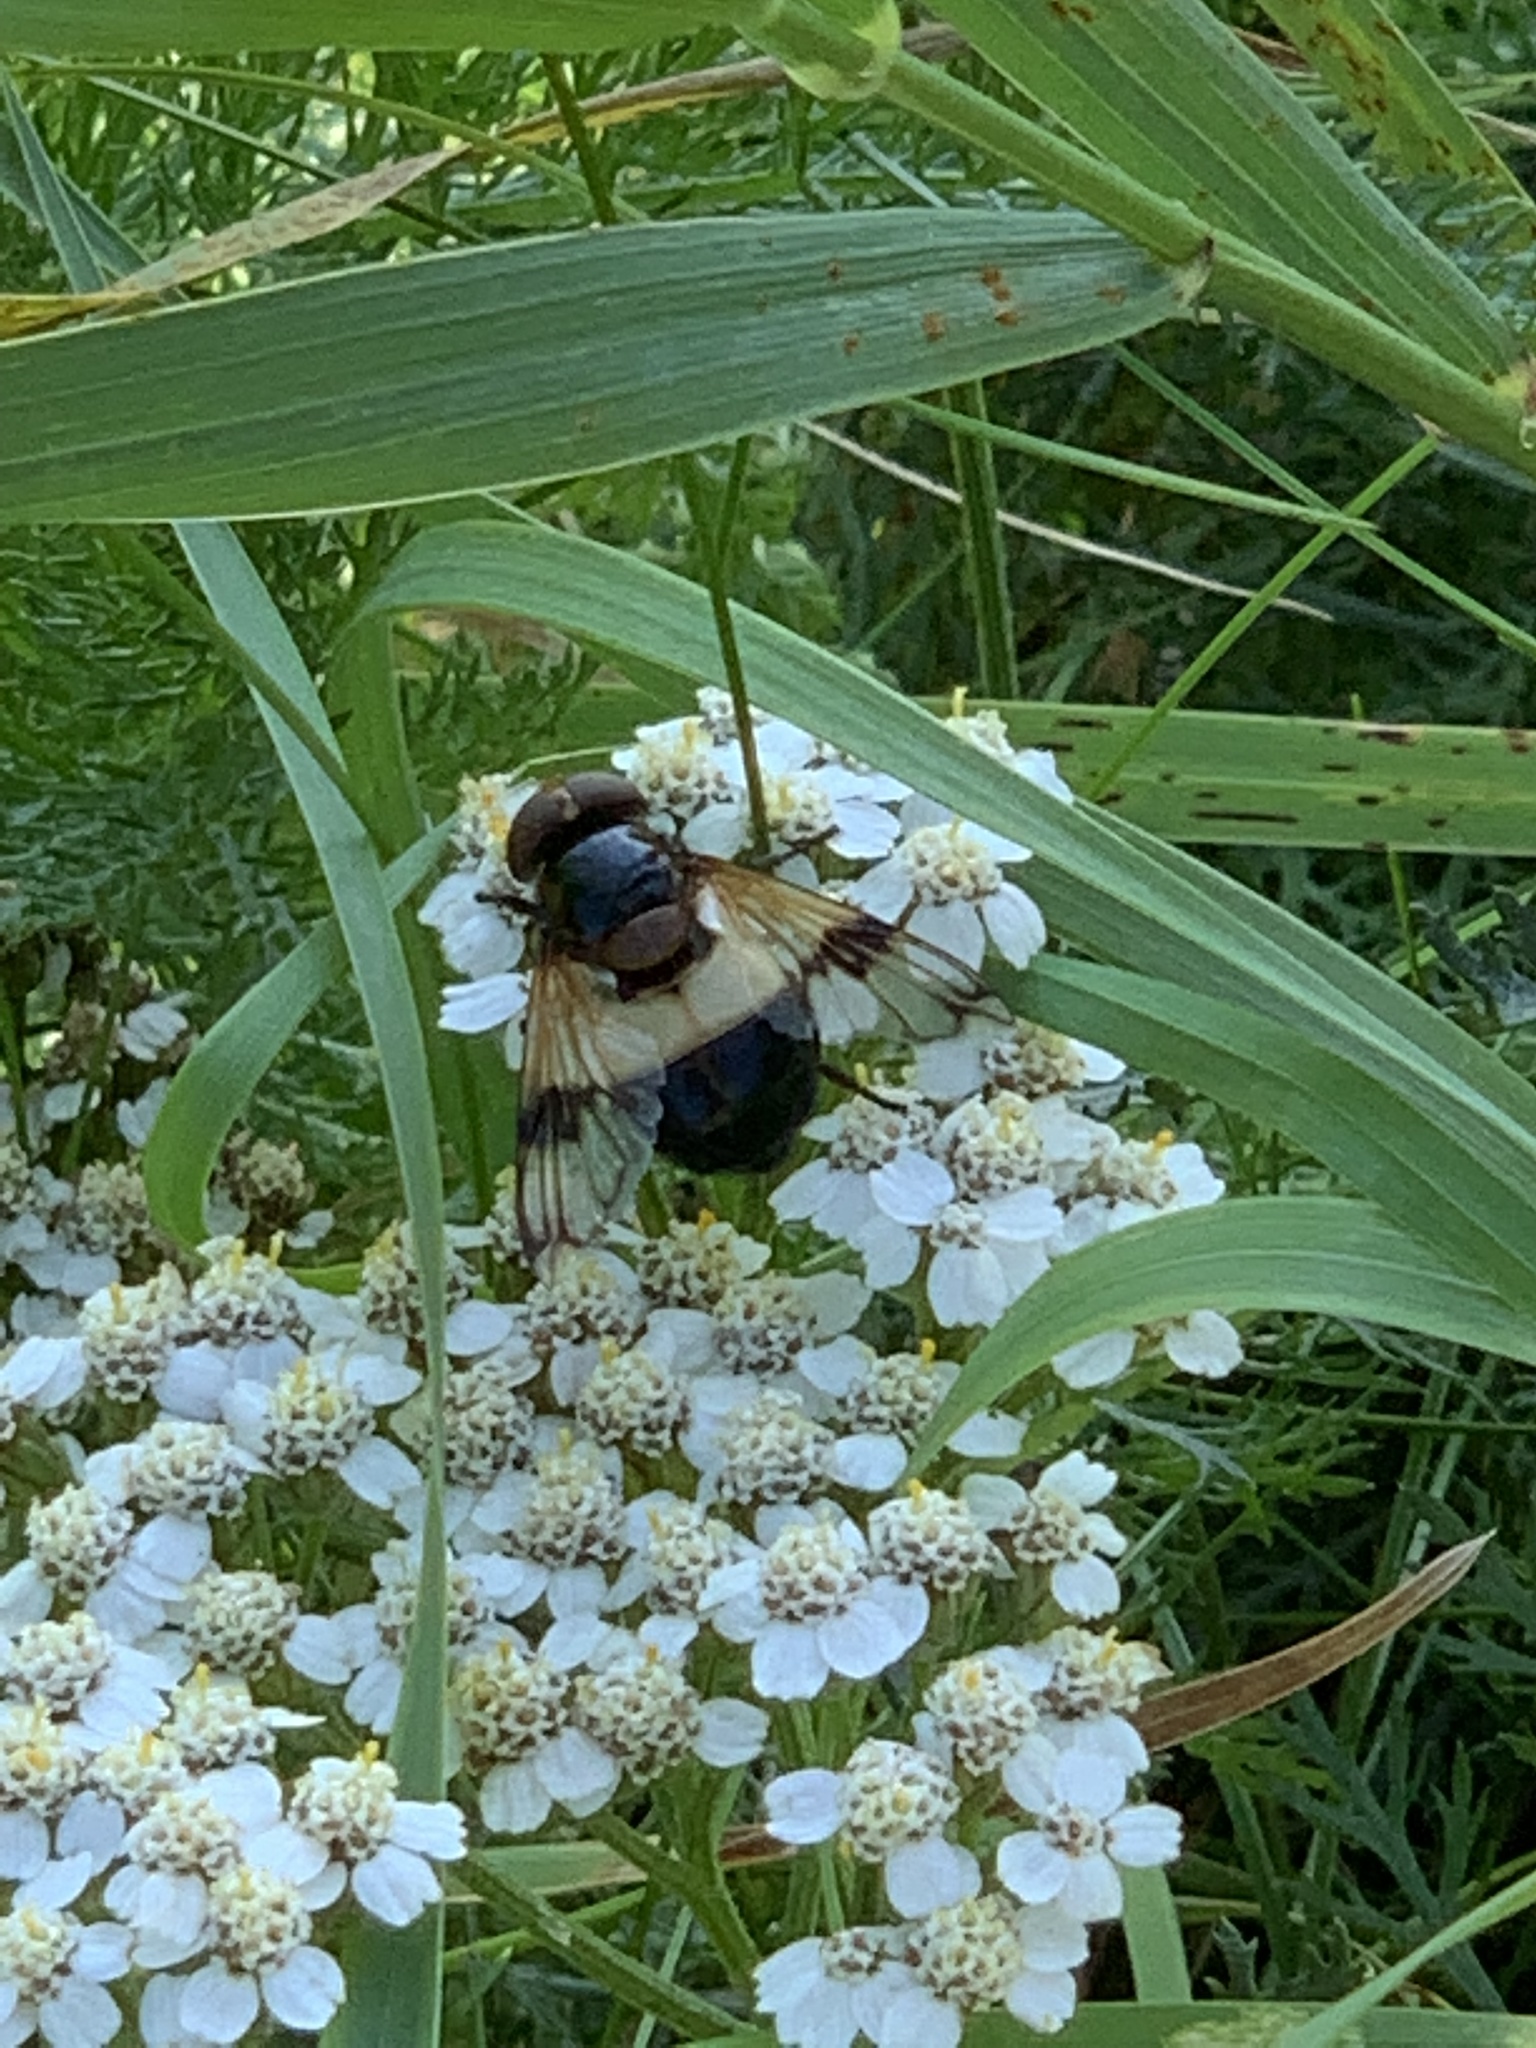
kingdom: Animalia
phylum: Arthropoda
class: Insecta
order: Diptera
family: Syrphidae
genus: Volucella
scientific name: Volucella pellucens
